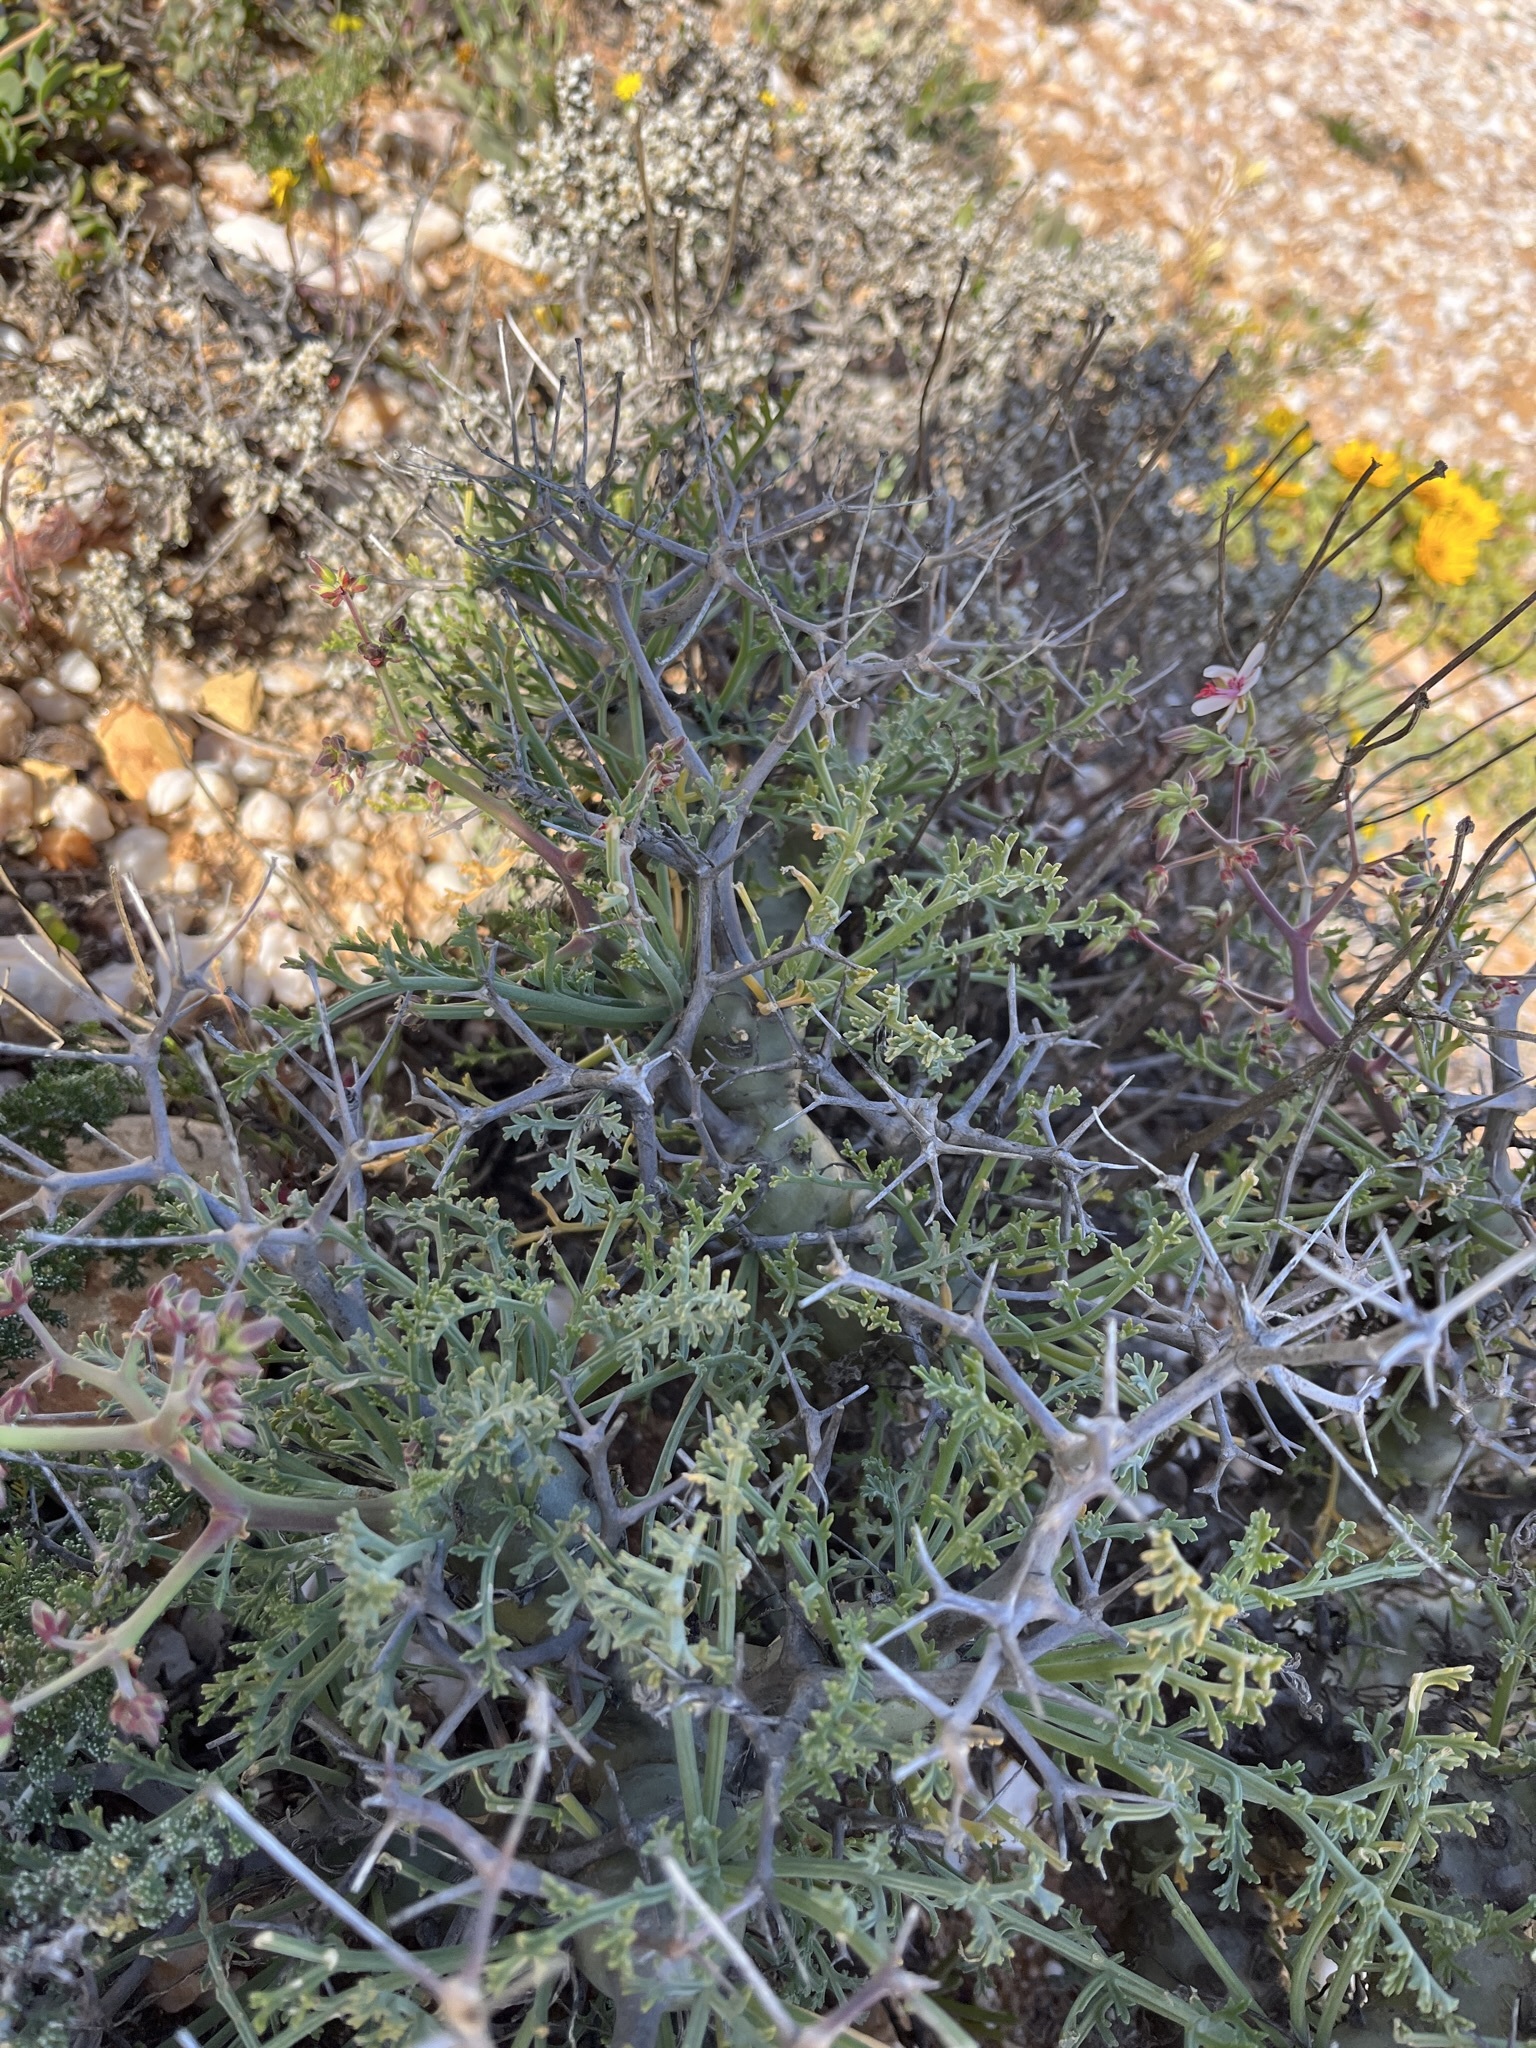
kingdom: Plantae
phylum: Tracheophyta
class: Magnoliopsida
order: Geraniales
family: Geraniaceae
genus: Pelargonium
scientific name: Pelargonium crithmifolium
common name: Samphire-leaf pelargonium
